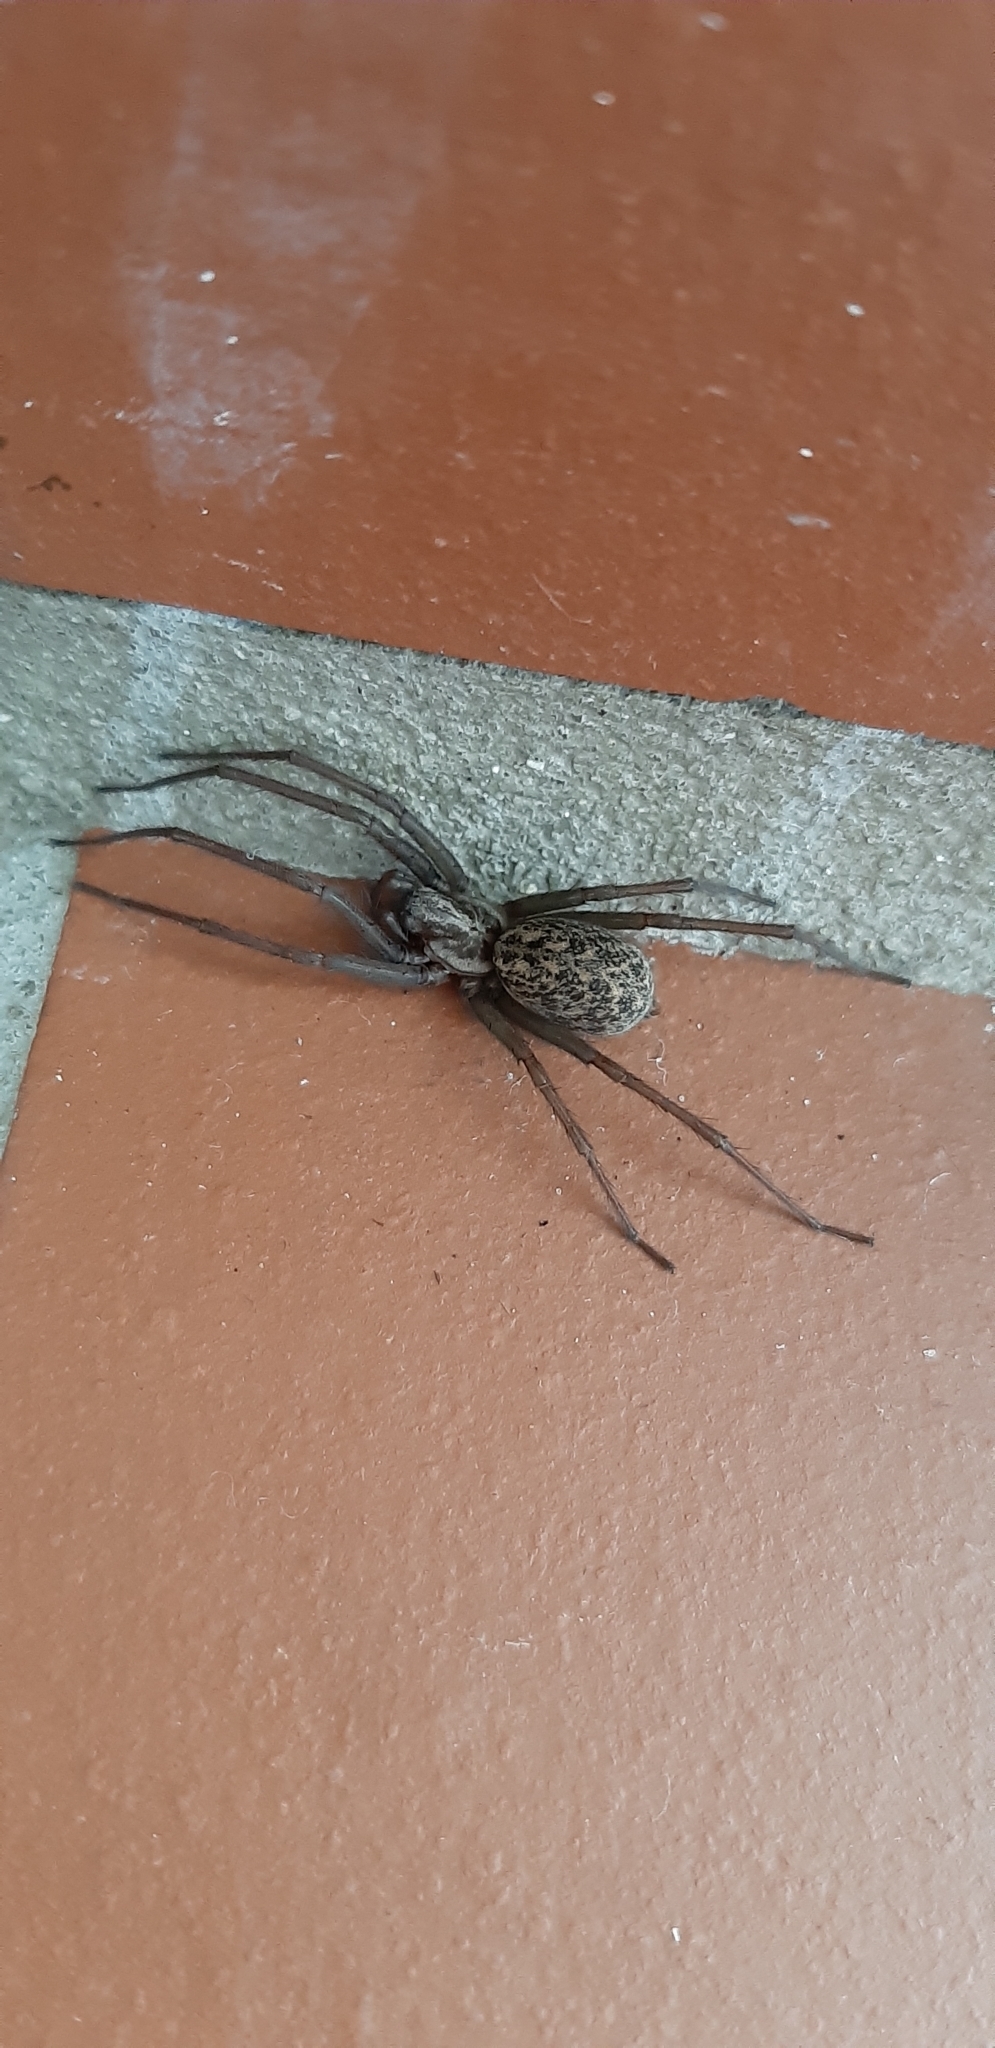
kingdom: Animalia
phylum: Arthropoda
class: Arachnida
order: Araneae
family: Agelenidae
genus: Eratigena
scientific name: Eratigena atrica
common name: Giant house spider
